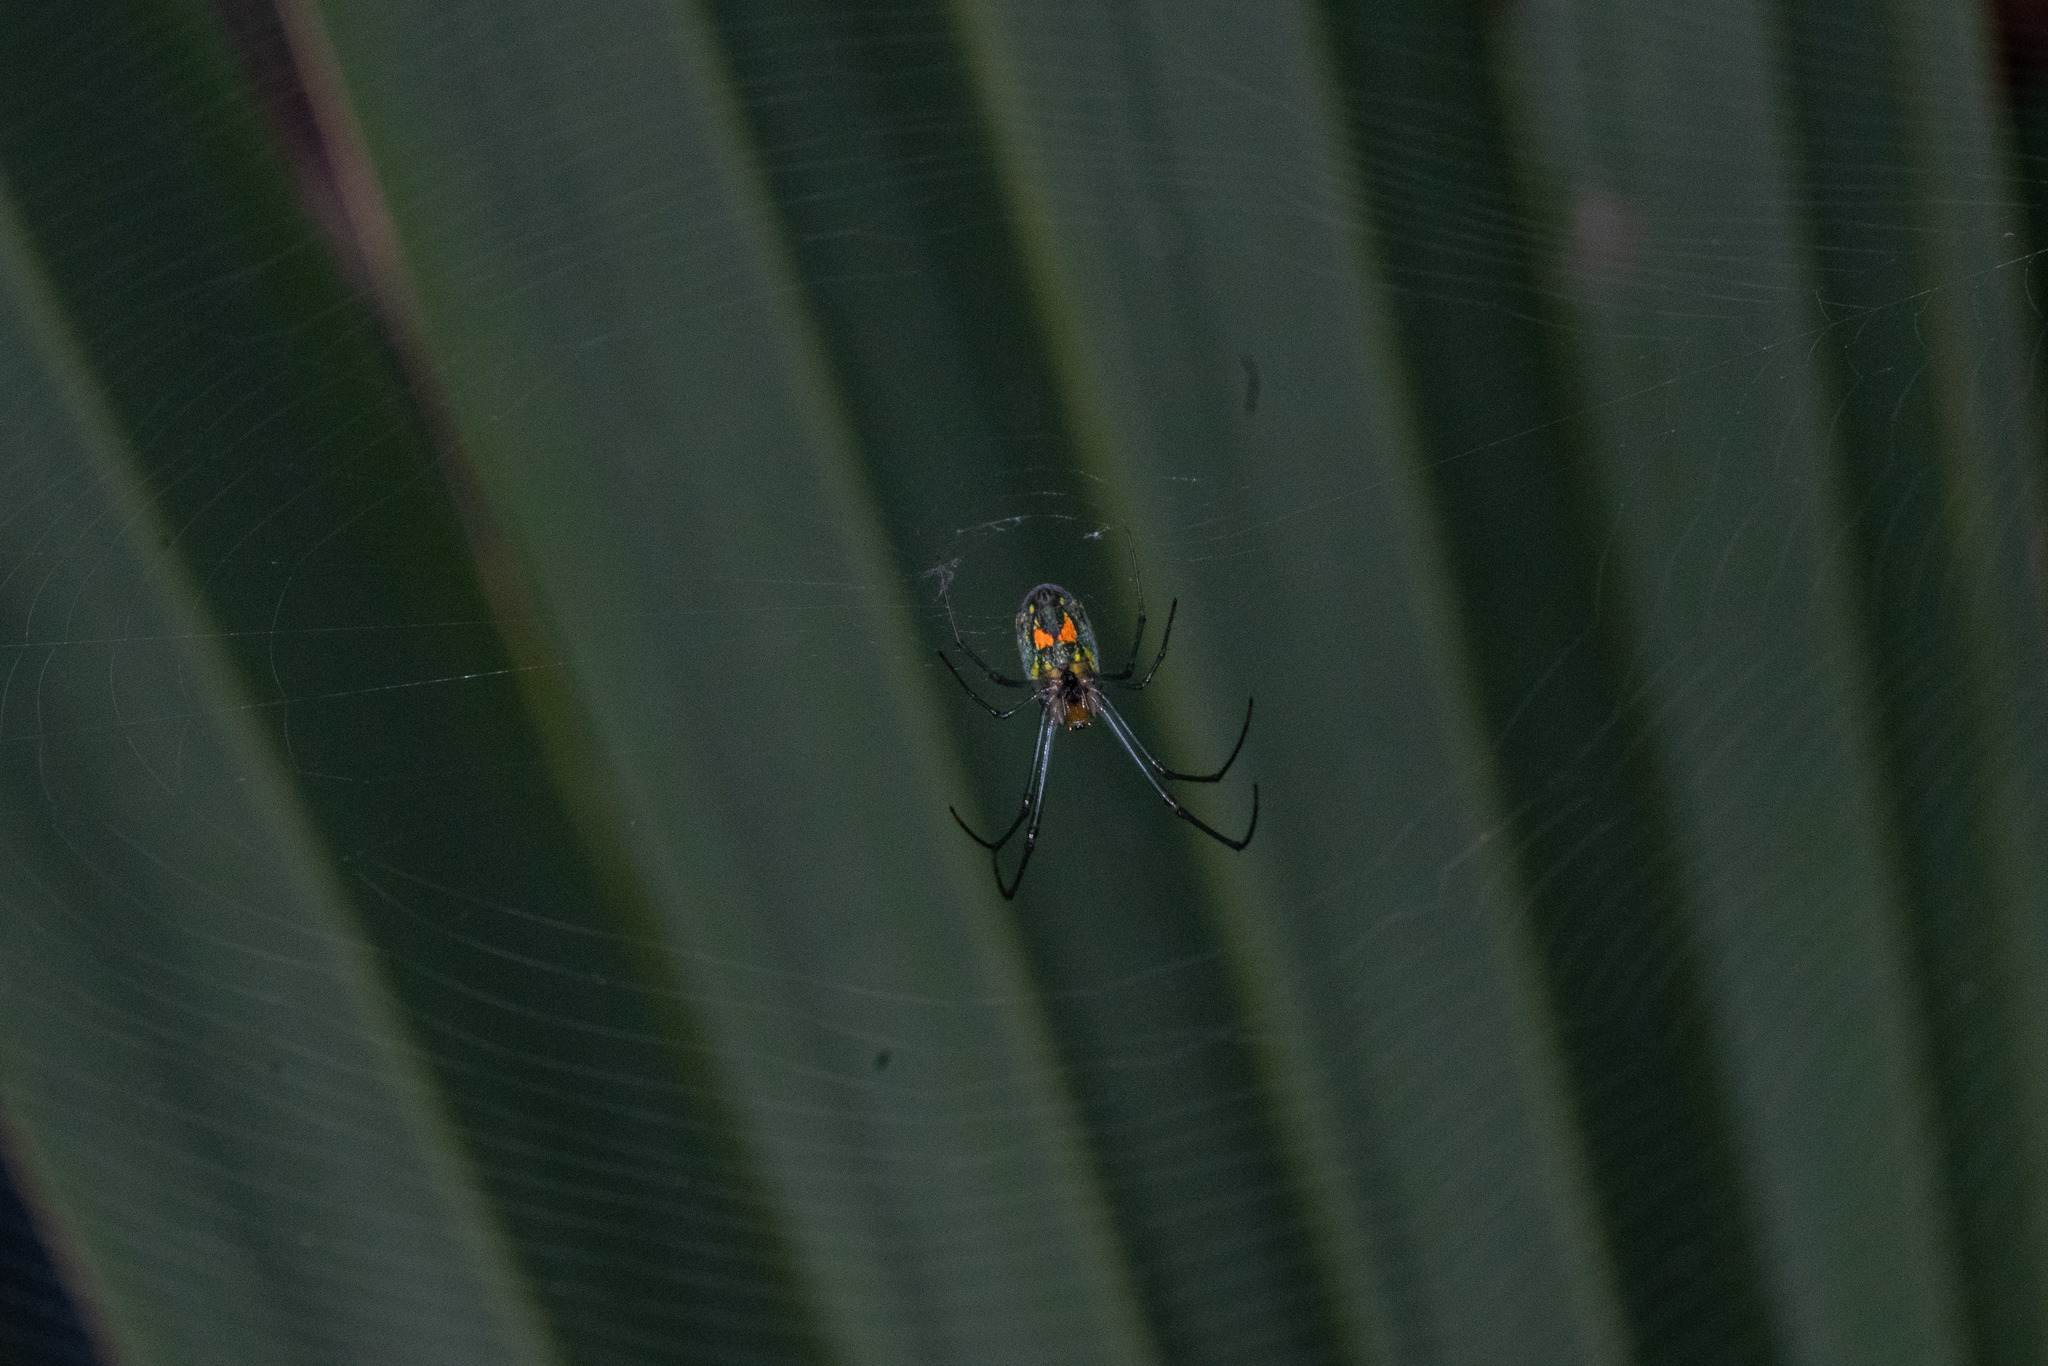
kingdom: Animalia
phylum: Arthropoda
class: Arachnida
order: Araneae
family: Tetragnathidae
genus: Leucauge
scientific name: Leucauge argyrobapta
